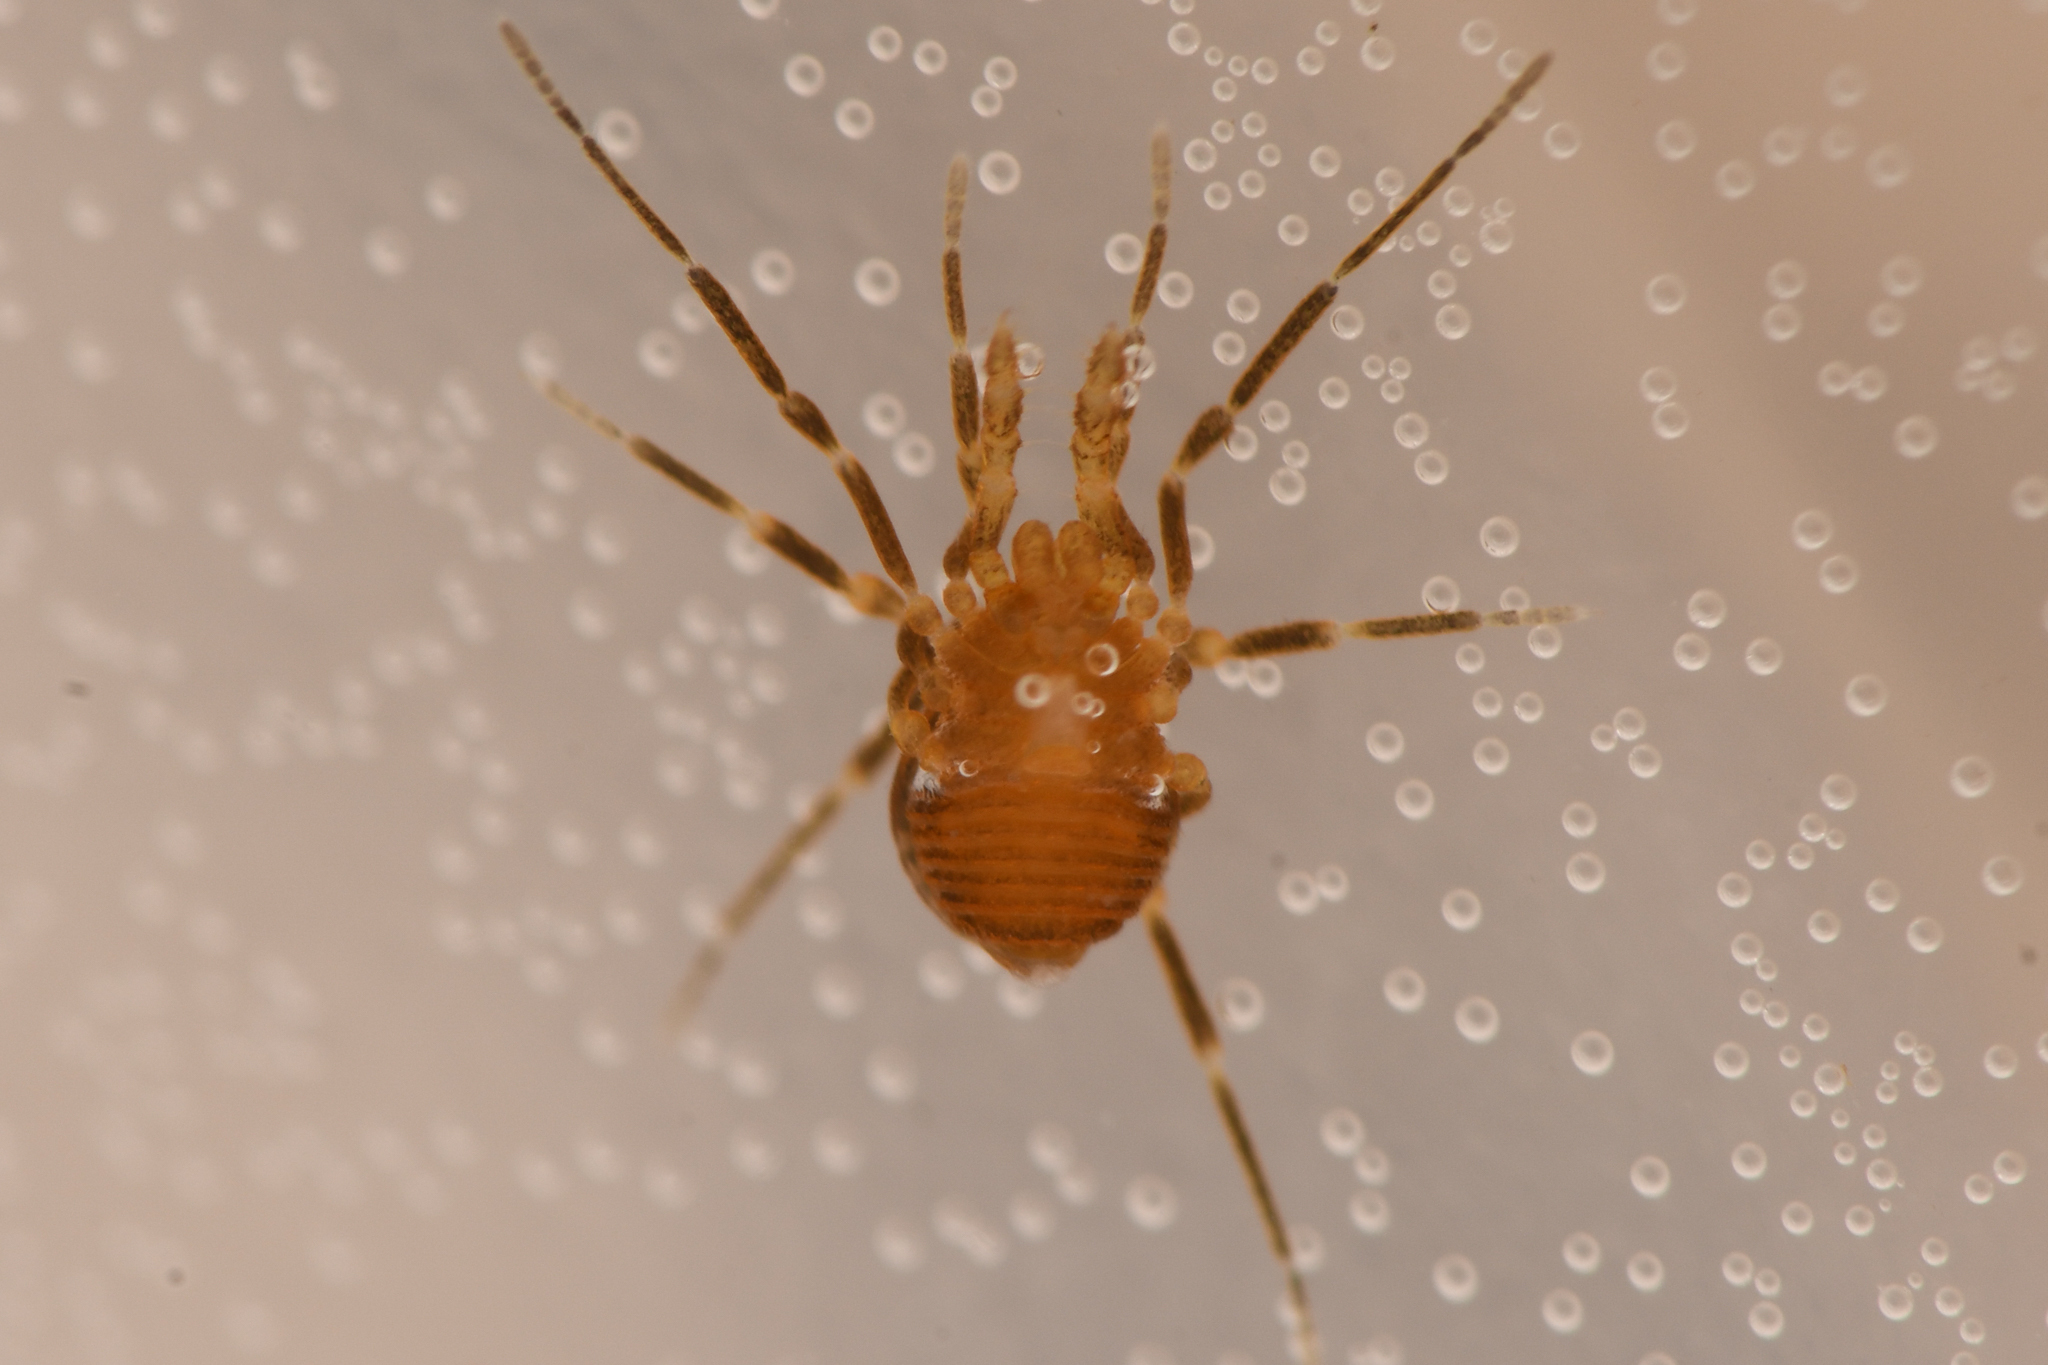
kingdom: Animalia
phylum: Arthropoda
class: Arachnida
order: Opiliones
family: Paranonychidae
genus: Metanonychus
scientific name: Metanonychus navarrus
